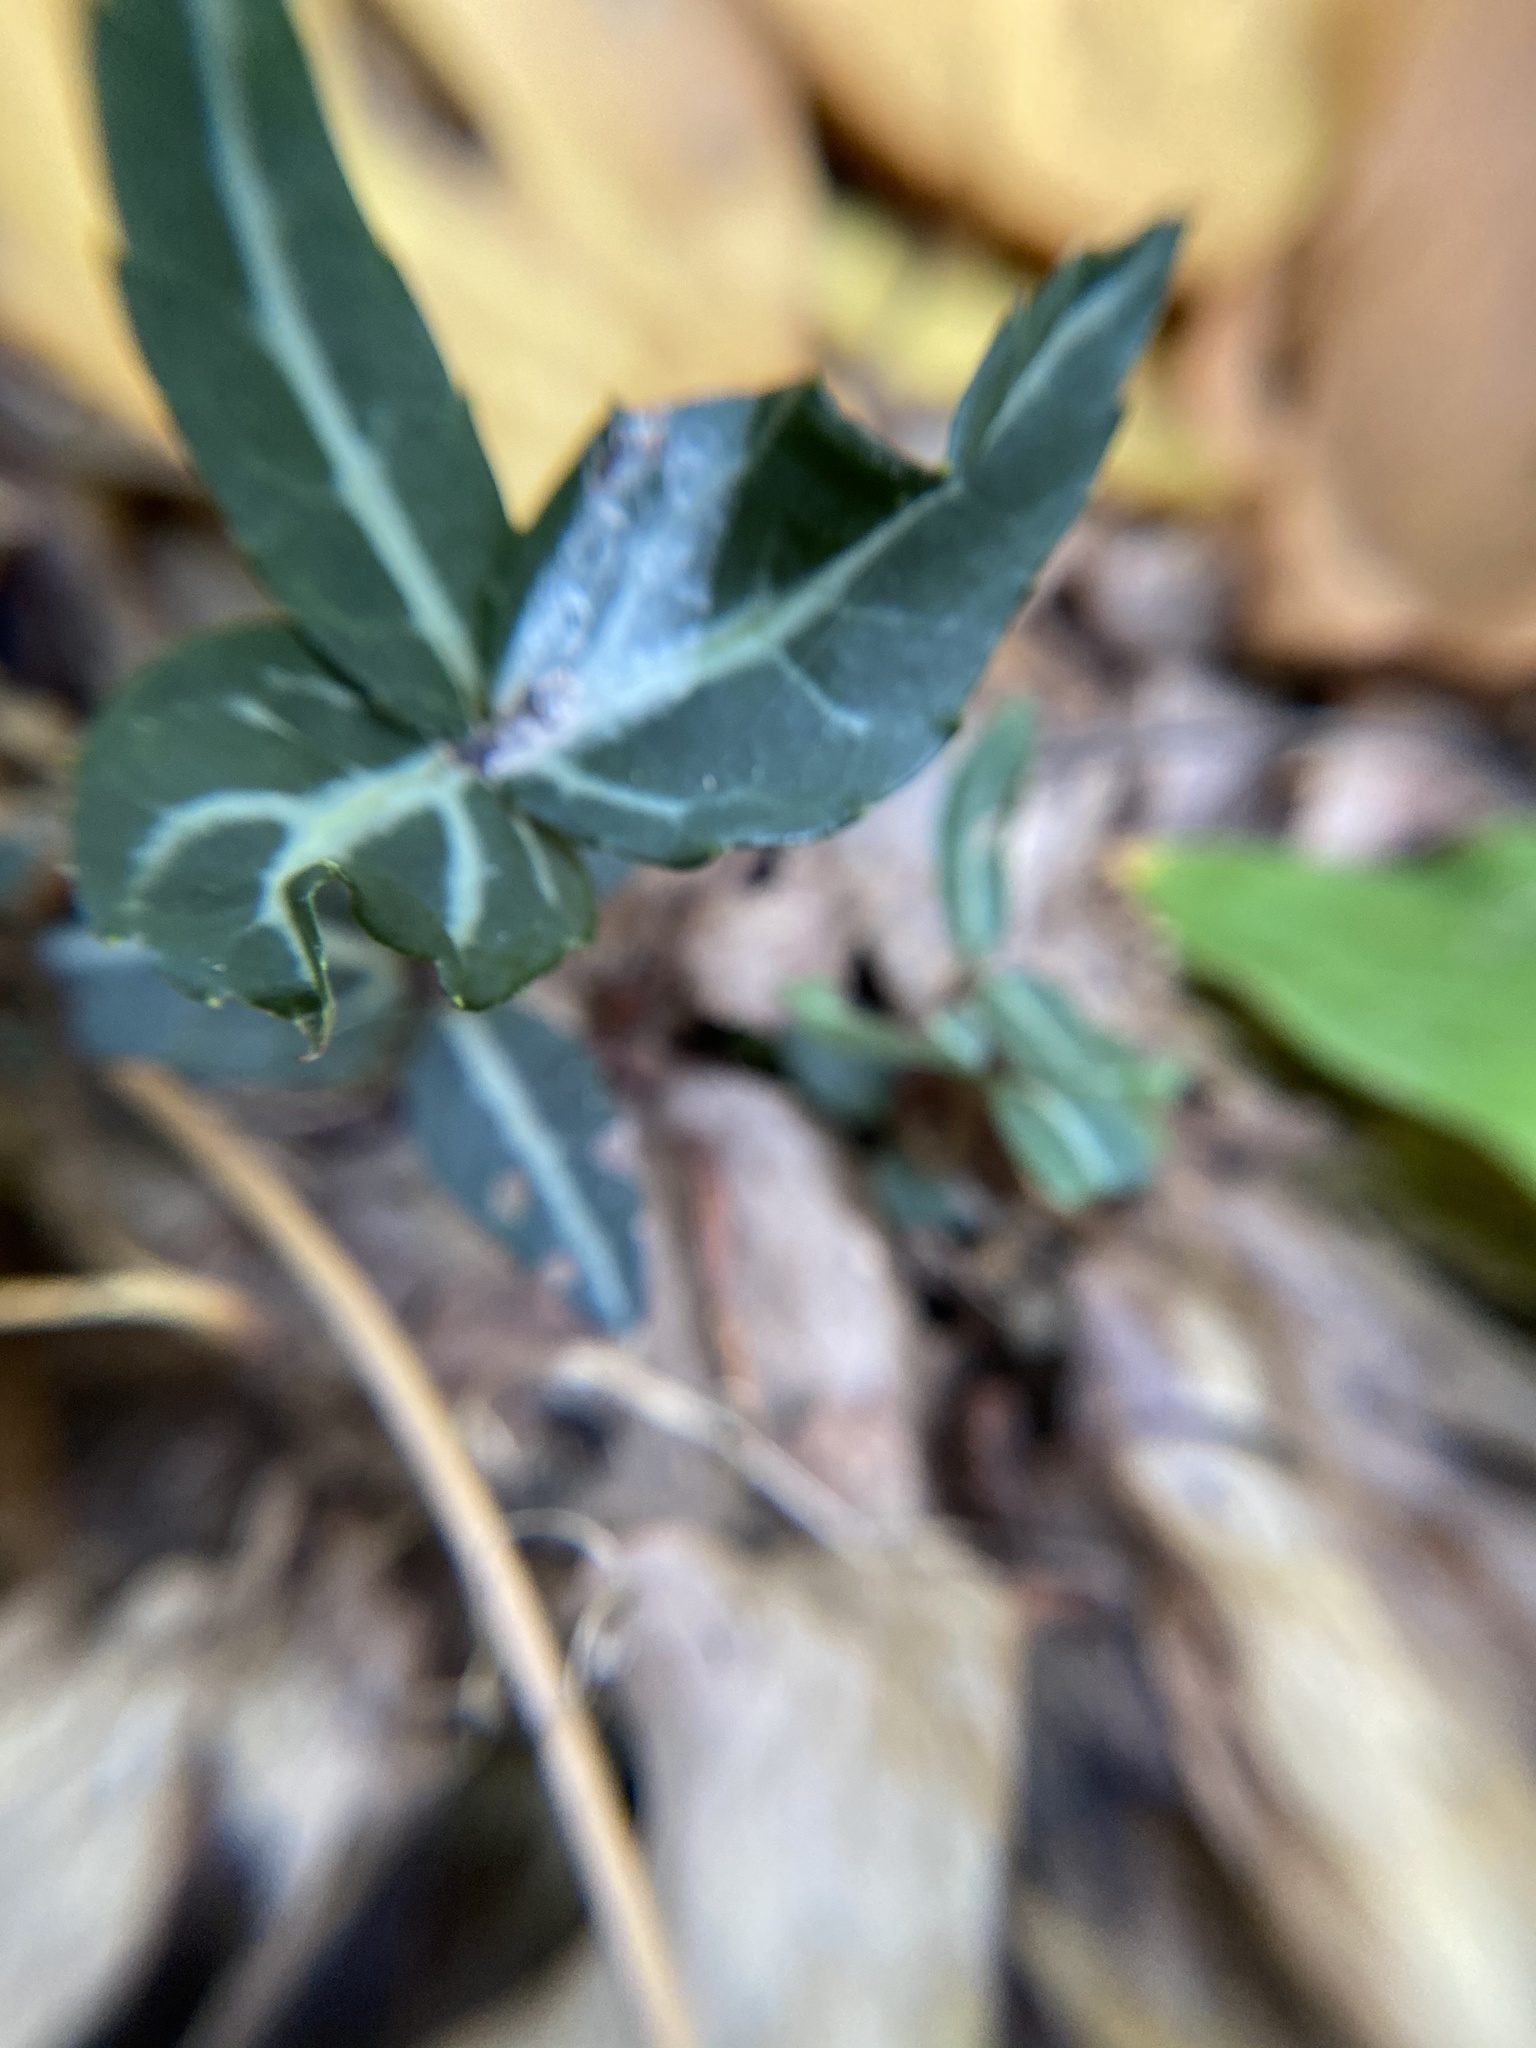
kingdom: Plantae
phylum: Tracheophyta
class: Magnoliopsida
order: Ericales
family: Ericaceae
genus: Chimaphila
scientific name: Chimaphila maculata
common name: Spotted pipsissewa
